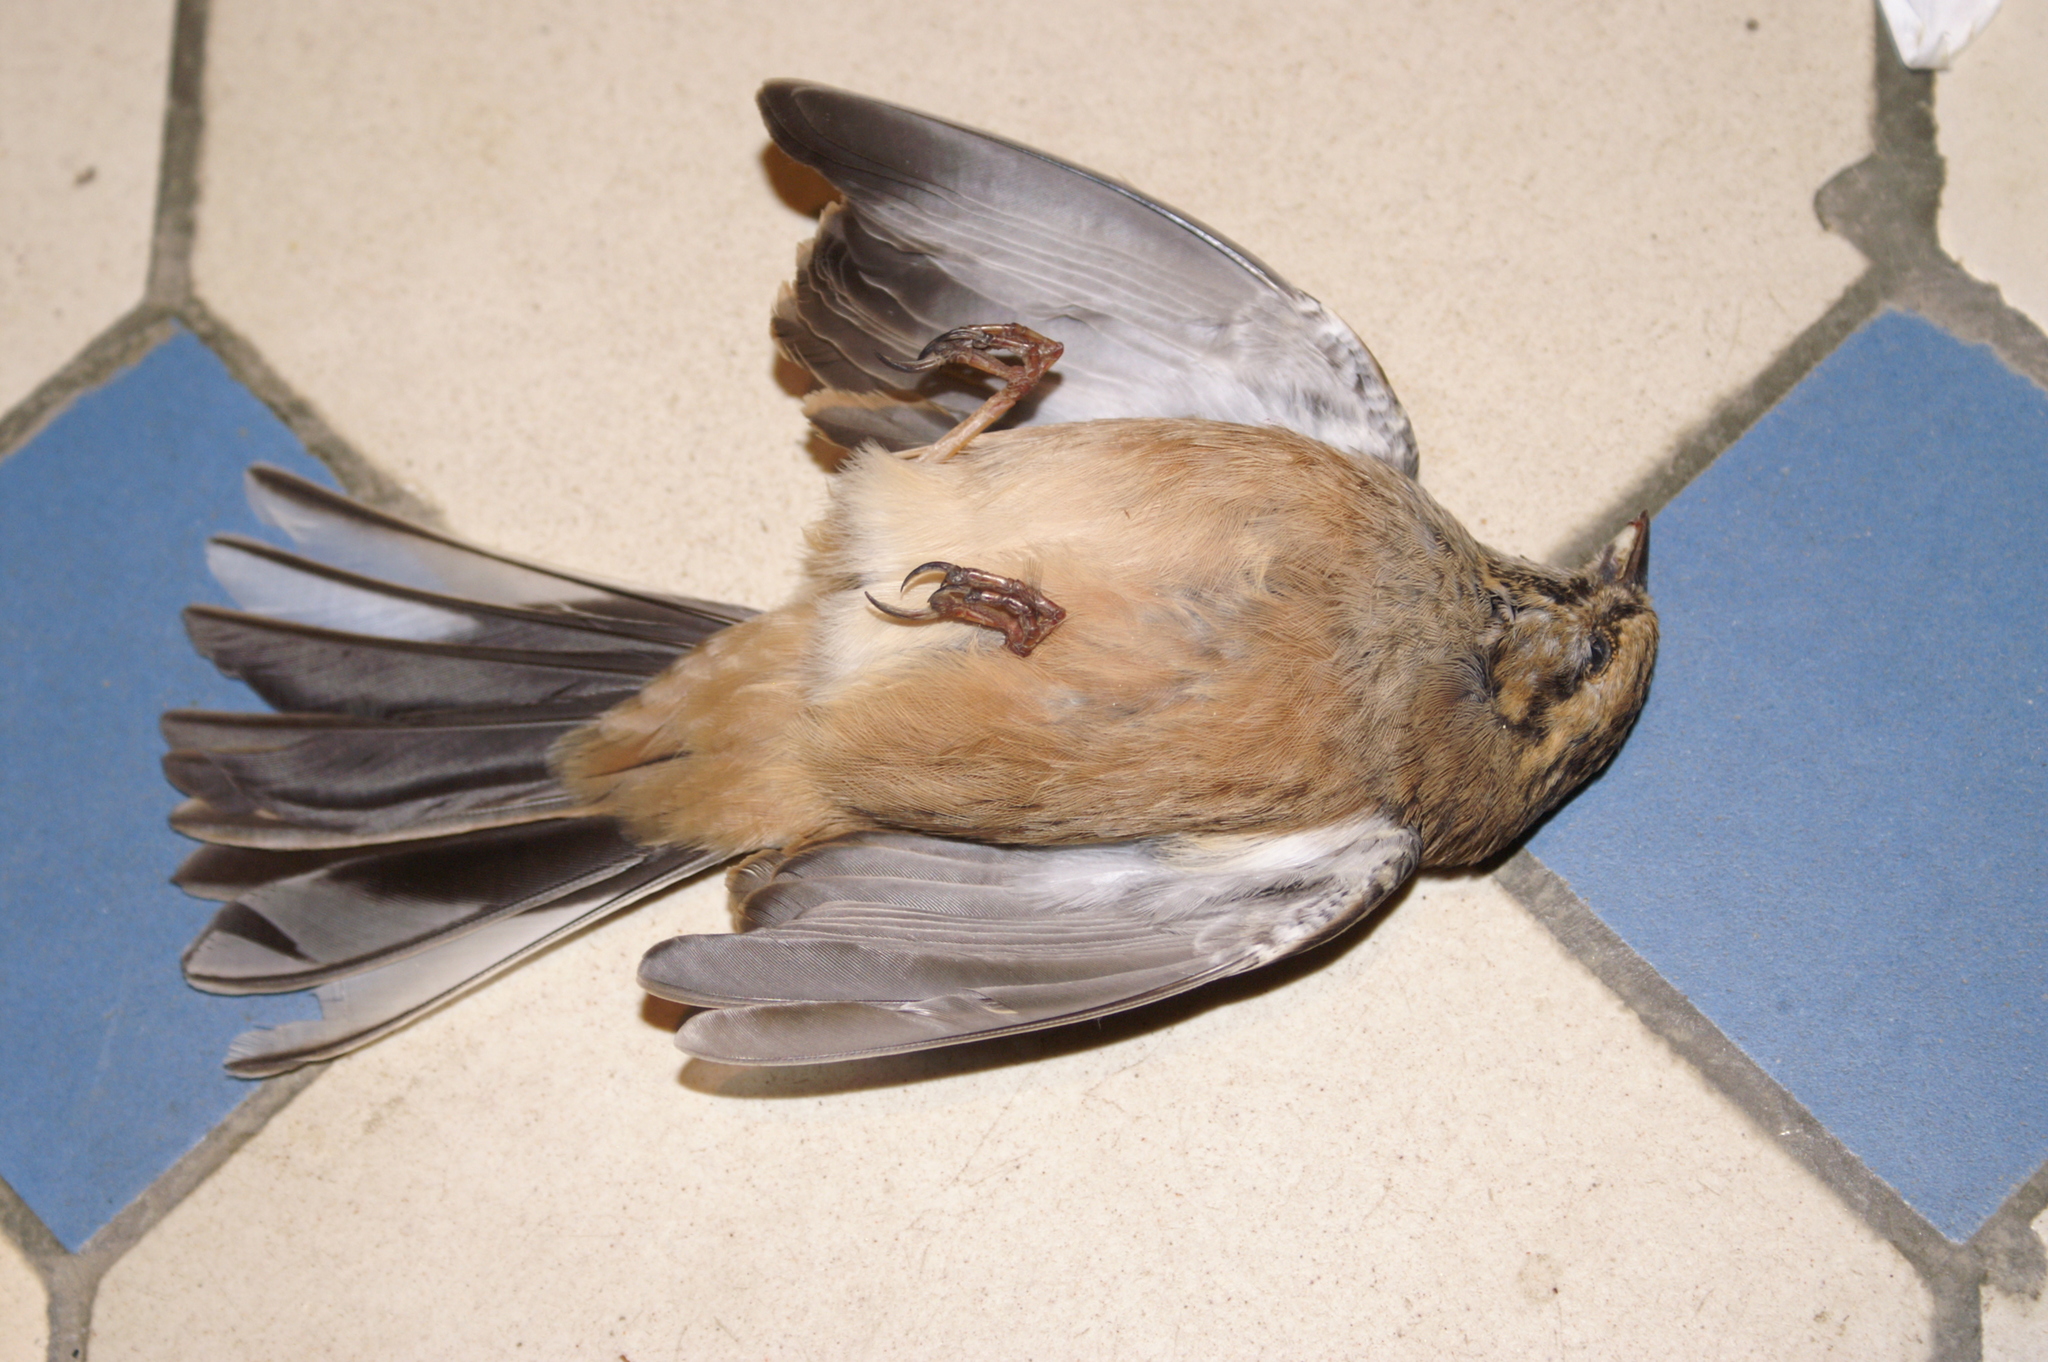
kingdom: Animalia
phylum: Chordata
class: Aves
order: Passeriformes
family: Emberizidae
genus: Emberiza
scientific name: Emberiza cia
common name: Rock bunting
